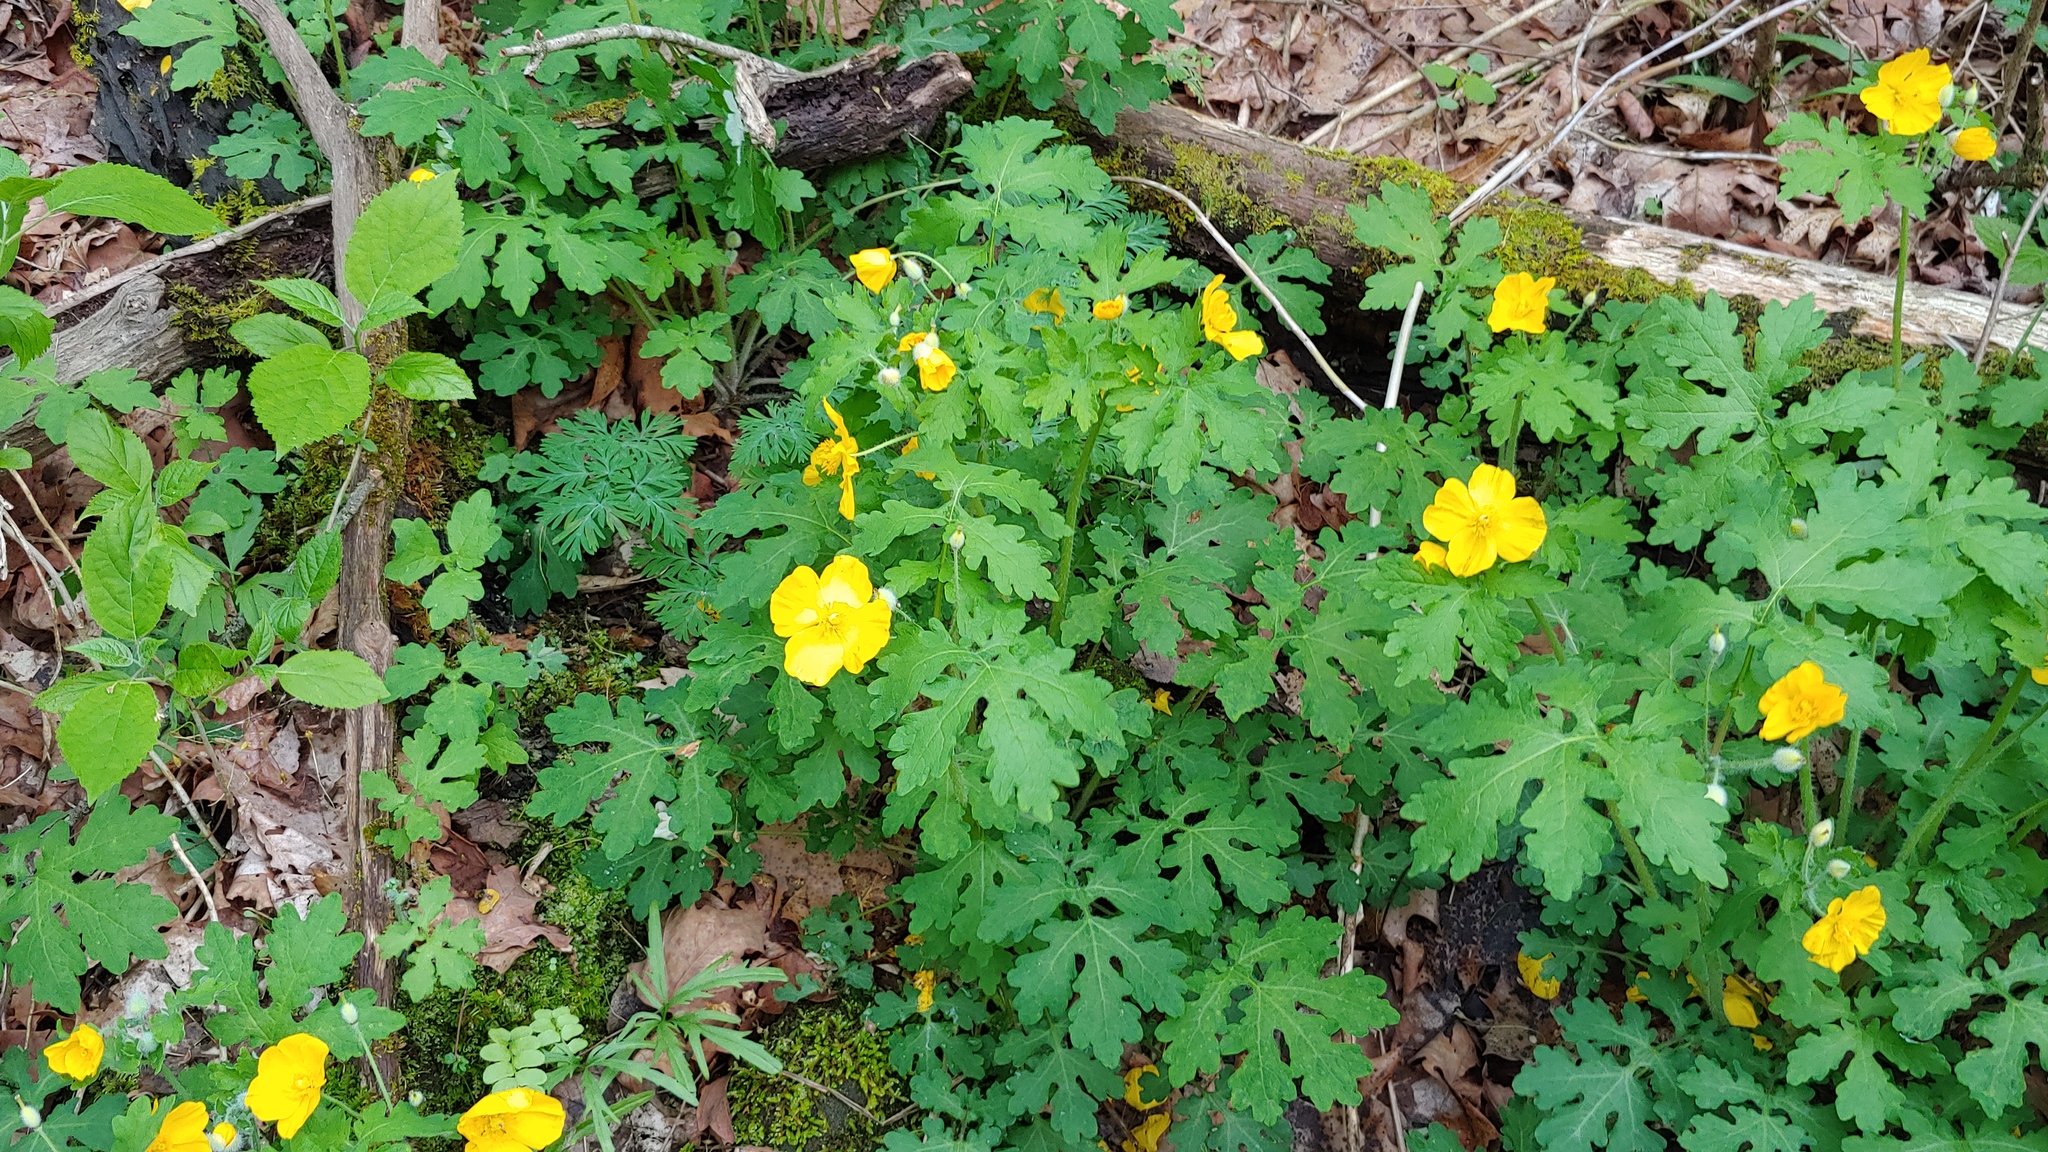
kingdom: Plantae
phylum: Tracheophyta
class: Magnoliopsida
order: Ranunculales
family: Papaveraceae
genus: Stylophorum
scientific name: Stylophorum diphyllum
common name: Celandine poppy
